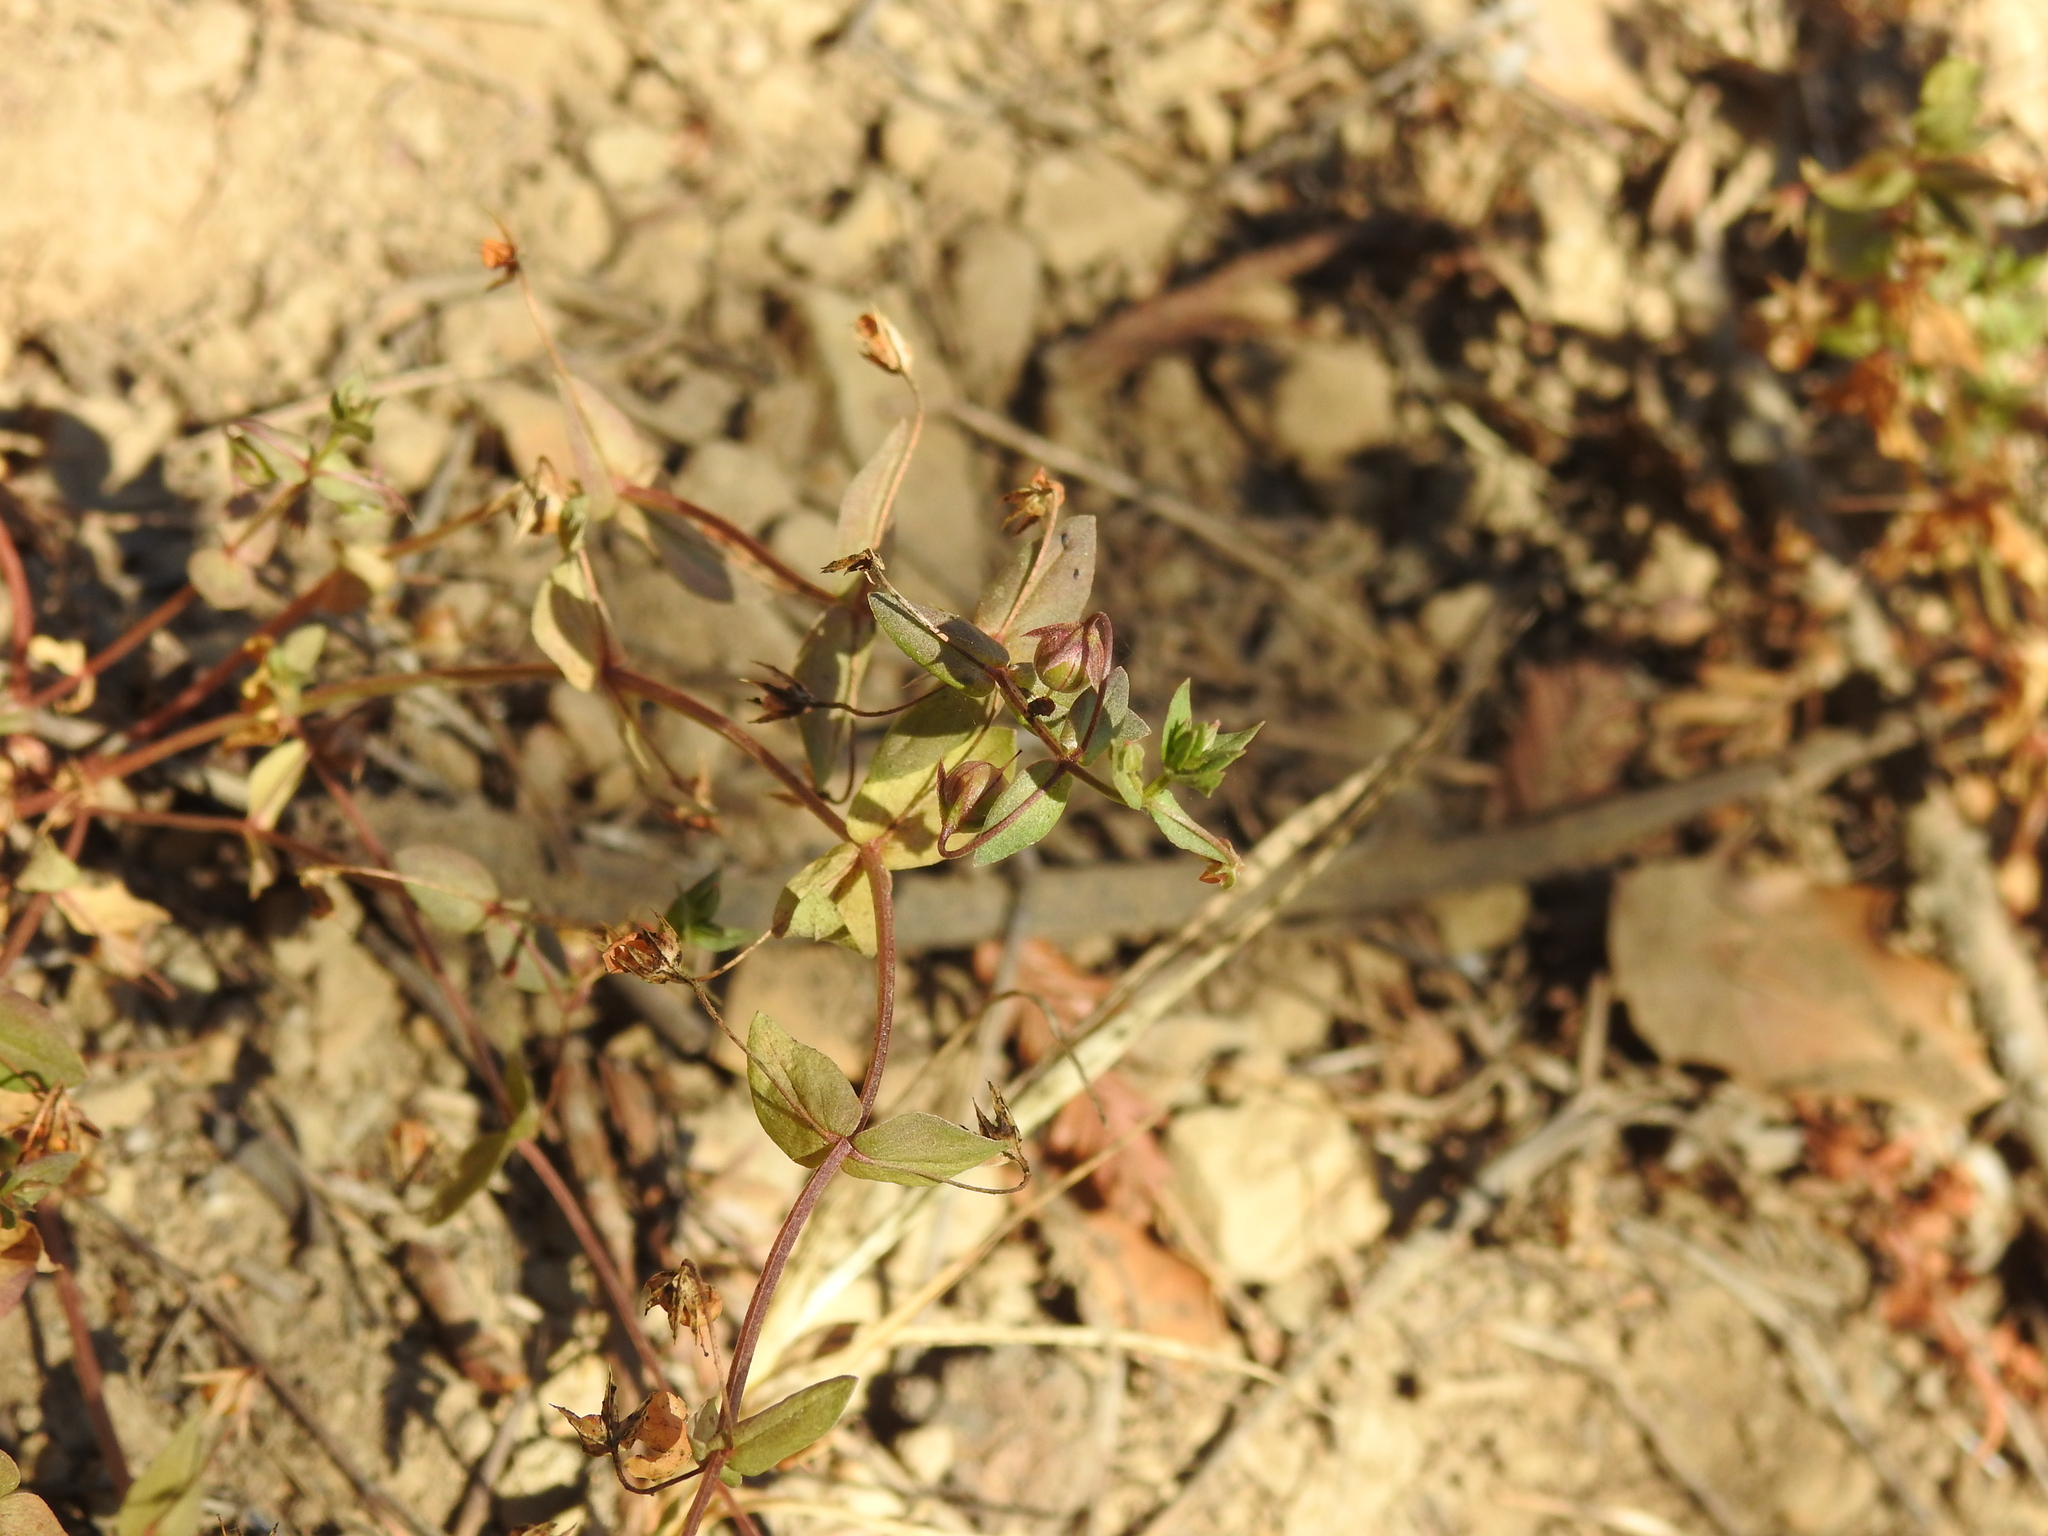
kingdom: Plantae
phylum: Tracheophyta
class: Magnoliopsida
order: Ericales
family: Primulaceae
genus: Lysimachia
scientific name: Lysimachia arvensis
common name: Scarlet pimpernel
